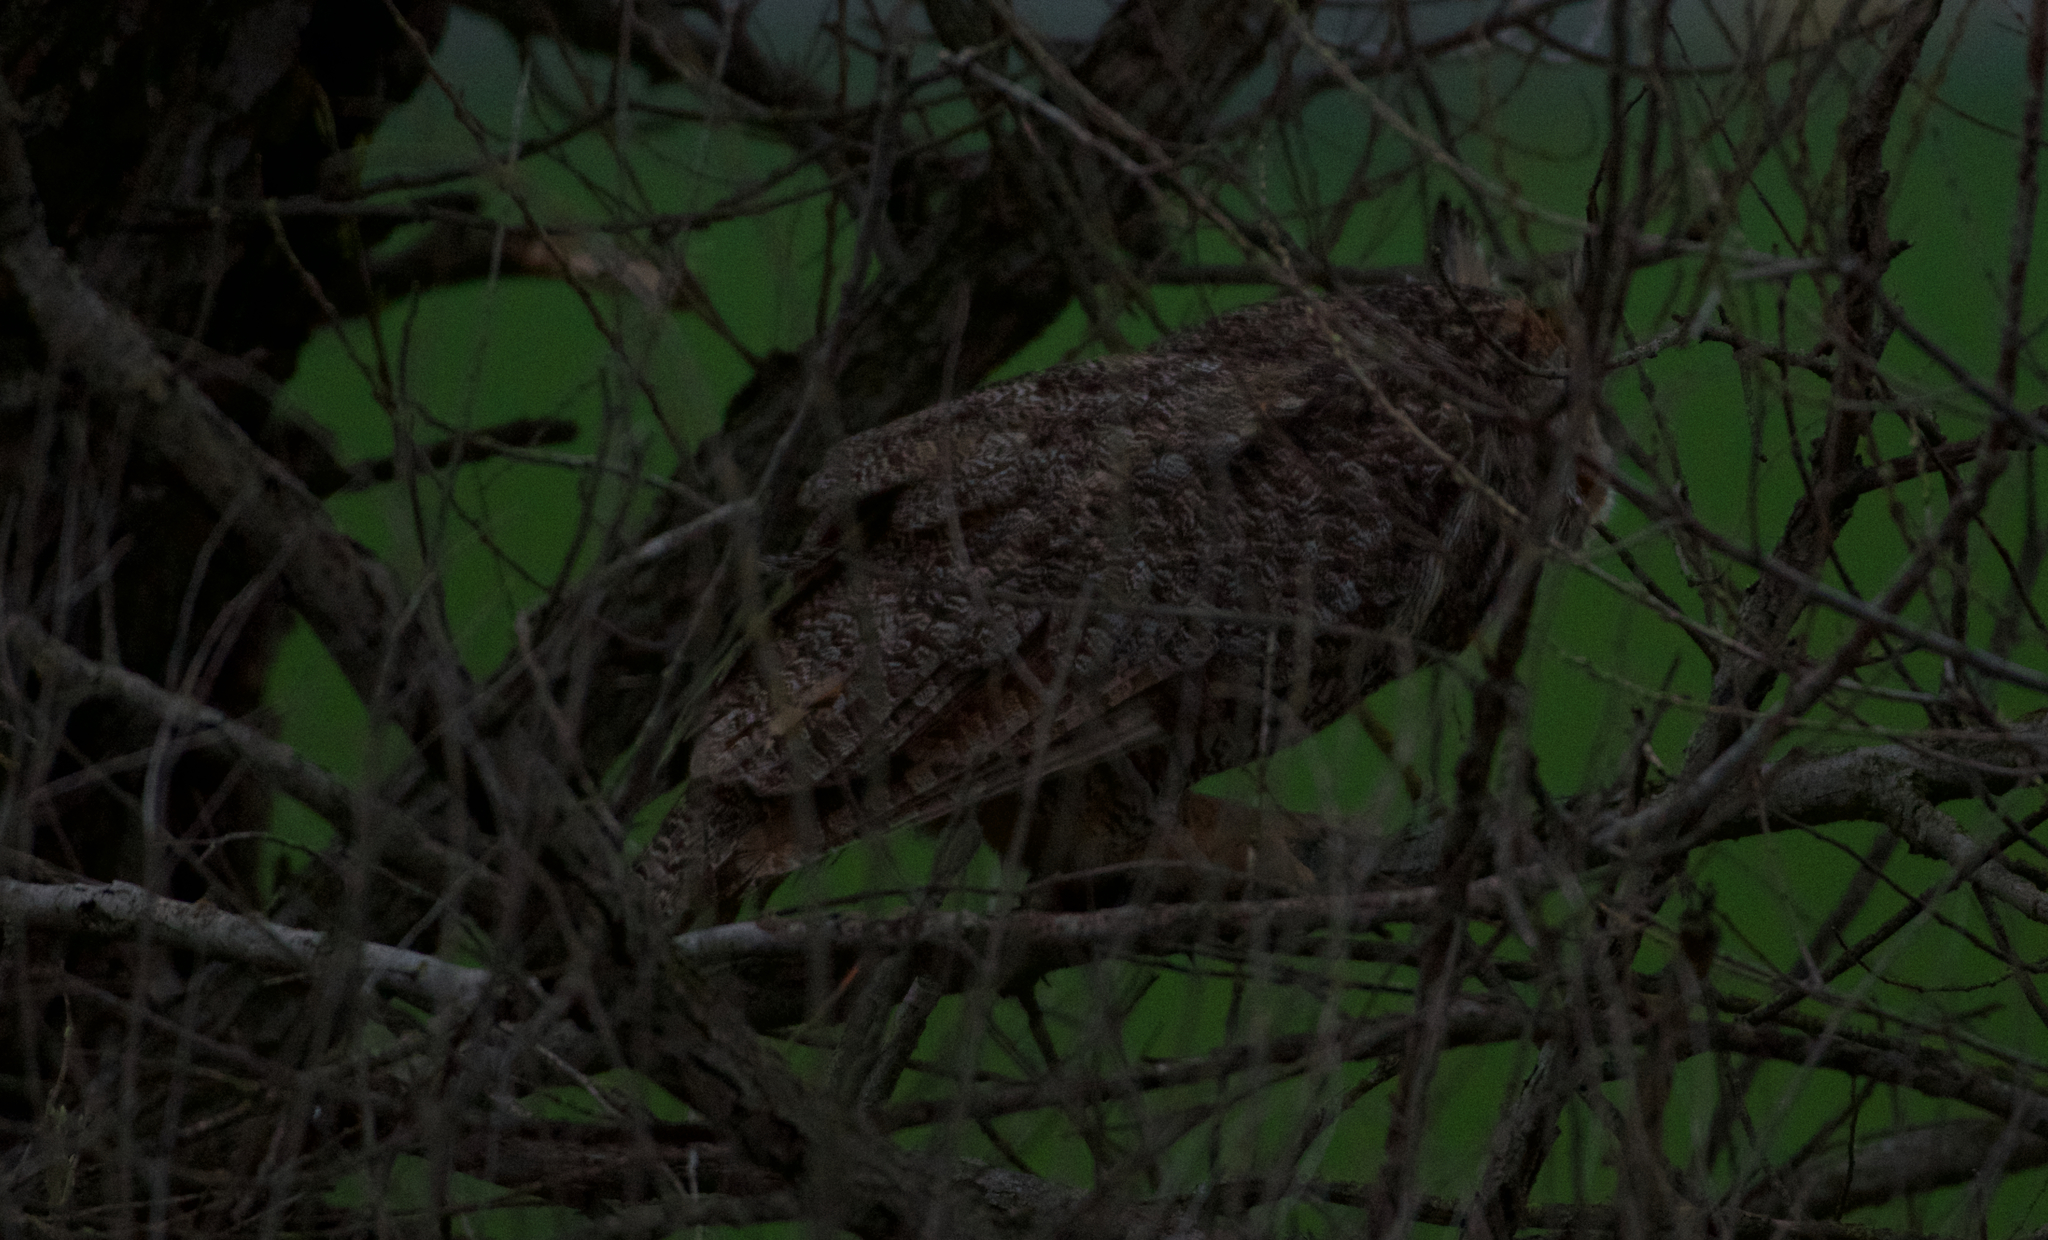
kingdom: Animalia
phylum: Chordata
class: Aves
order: Strigiformes
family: Strigidae
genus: Bubo
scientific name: Bubo virginianus
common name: Great horned owl
